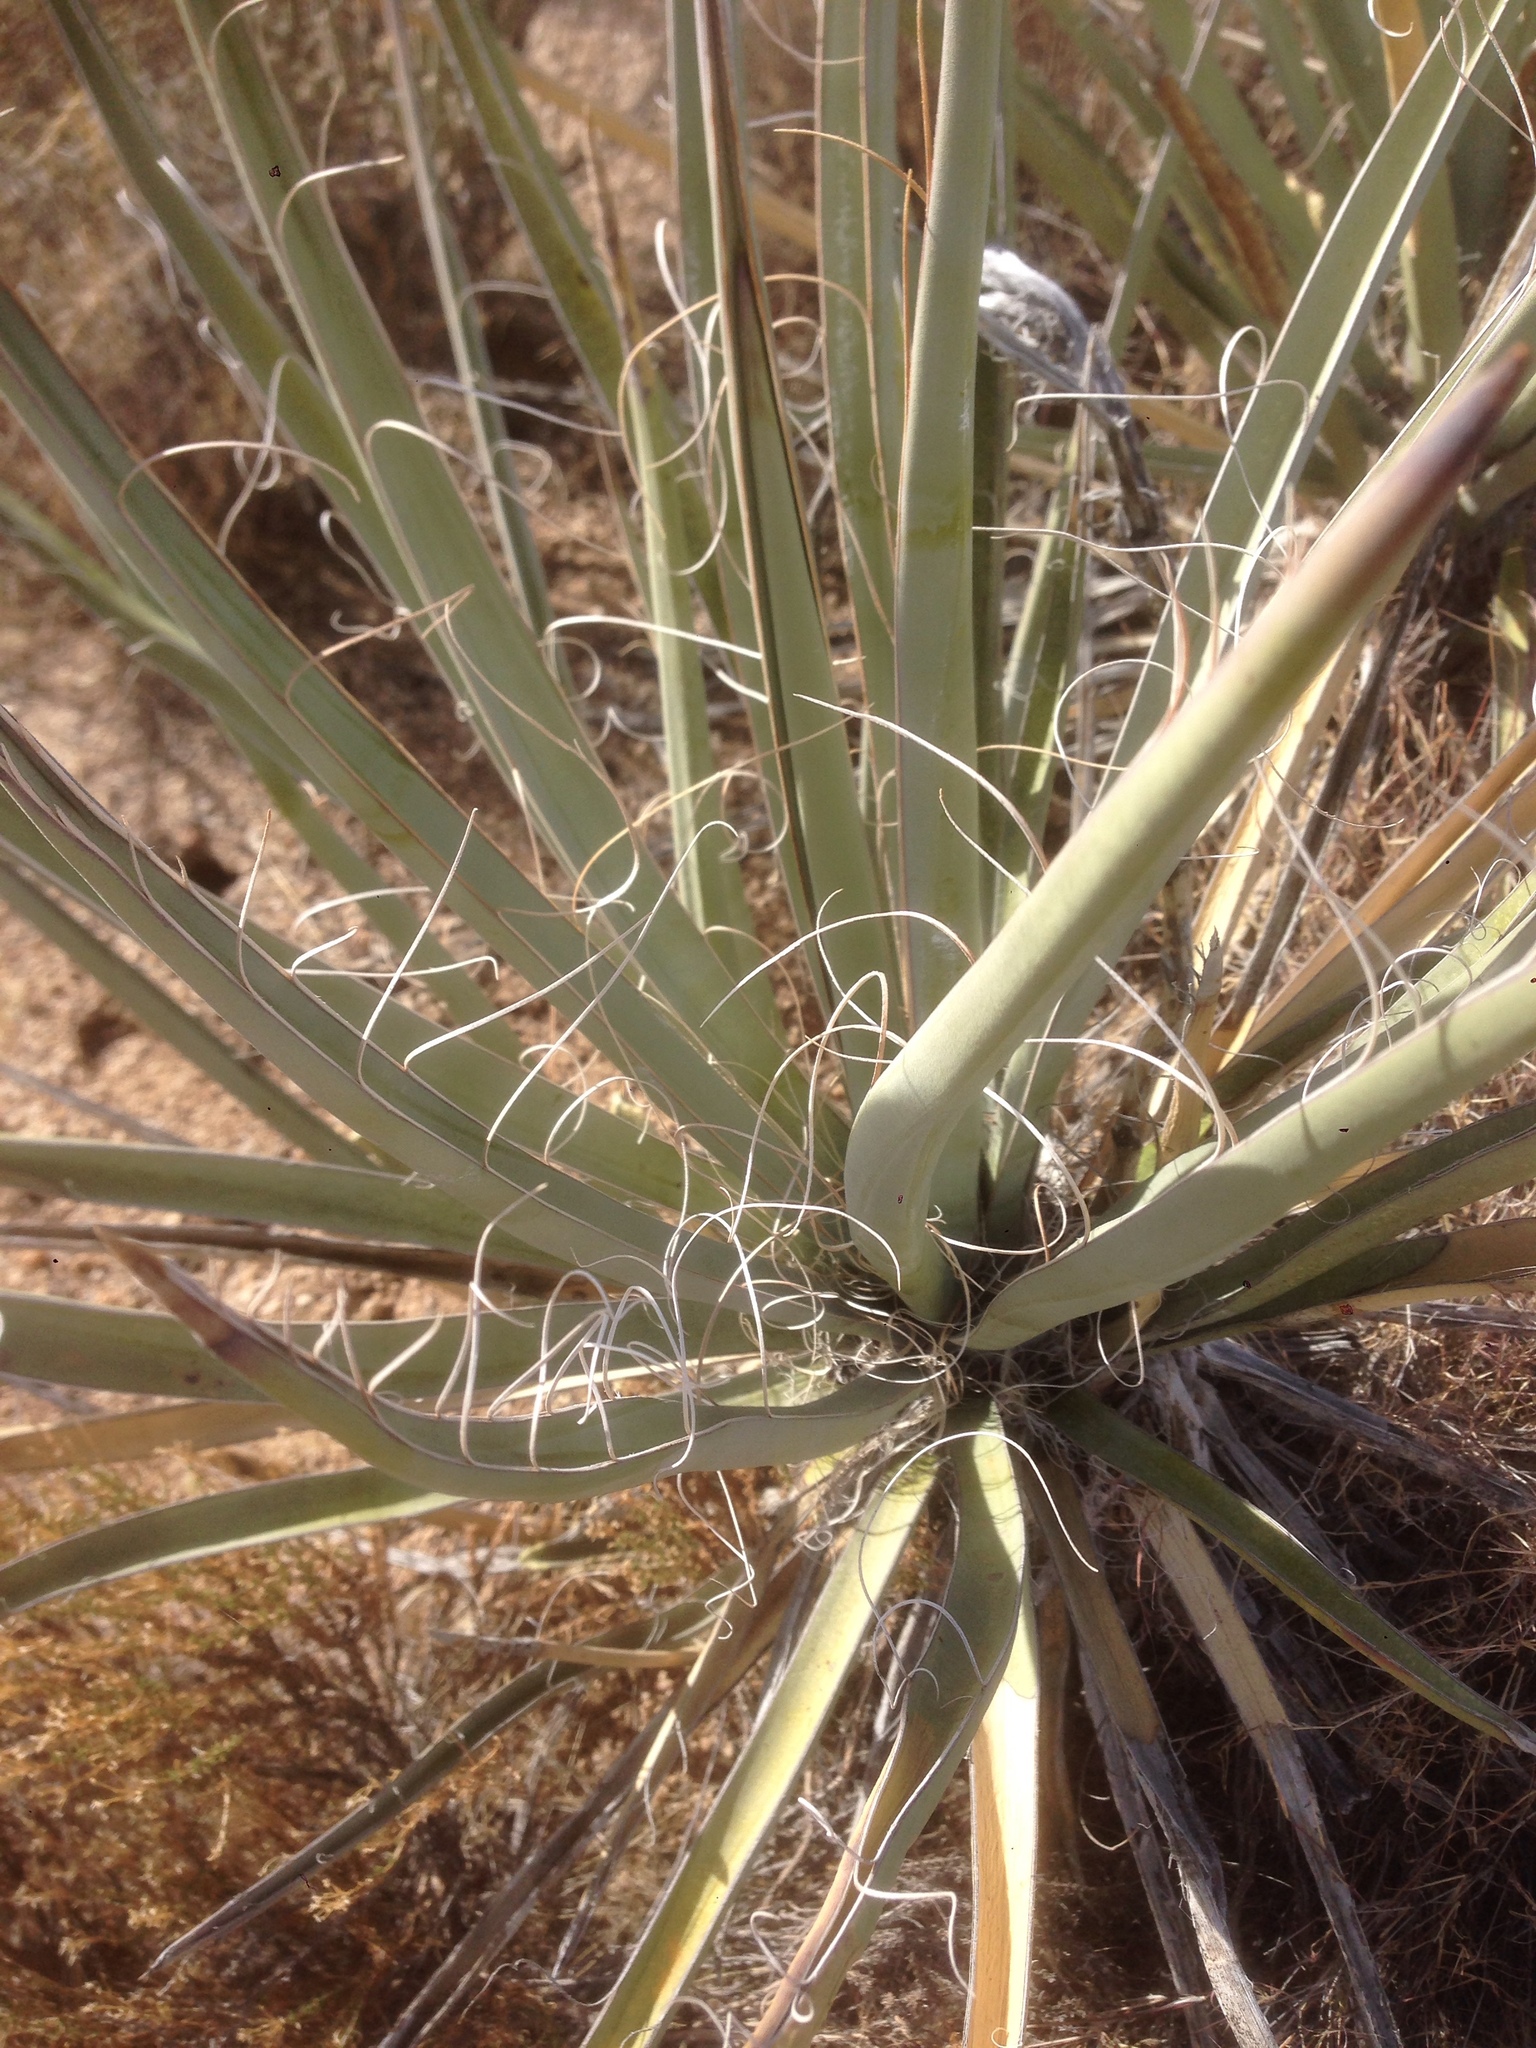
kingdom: Plantae
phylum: Tracheophyta
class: Liliopsida
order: Asparagales
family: Asparagaceae
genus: Yucca
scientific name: Yucca baccata
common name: Banana yucca
